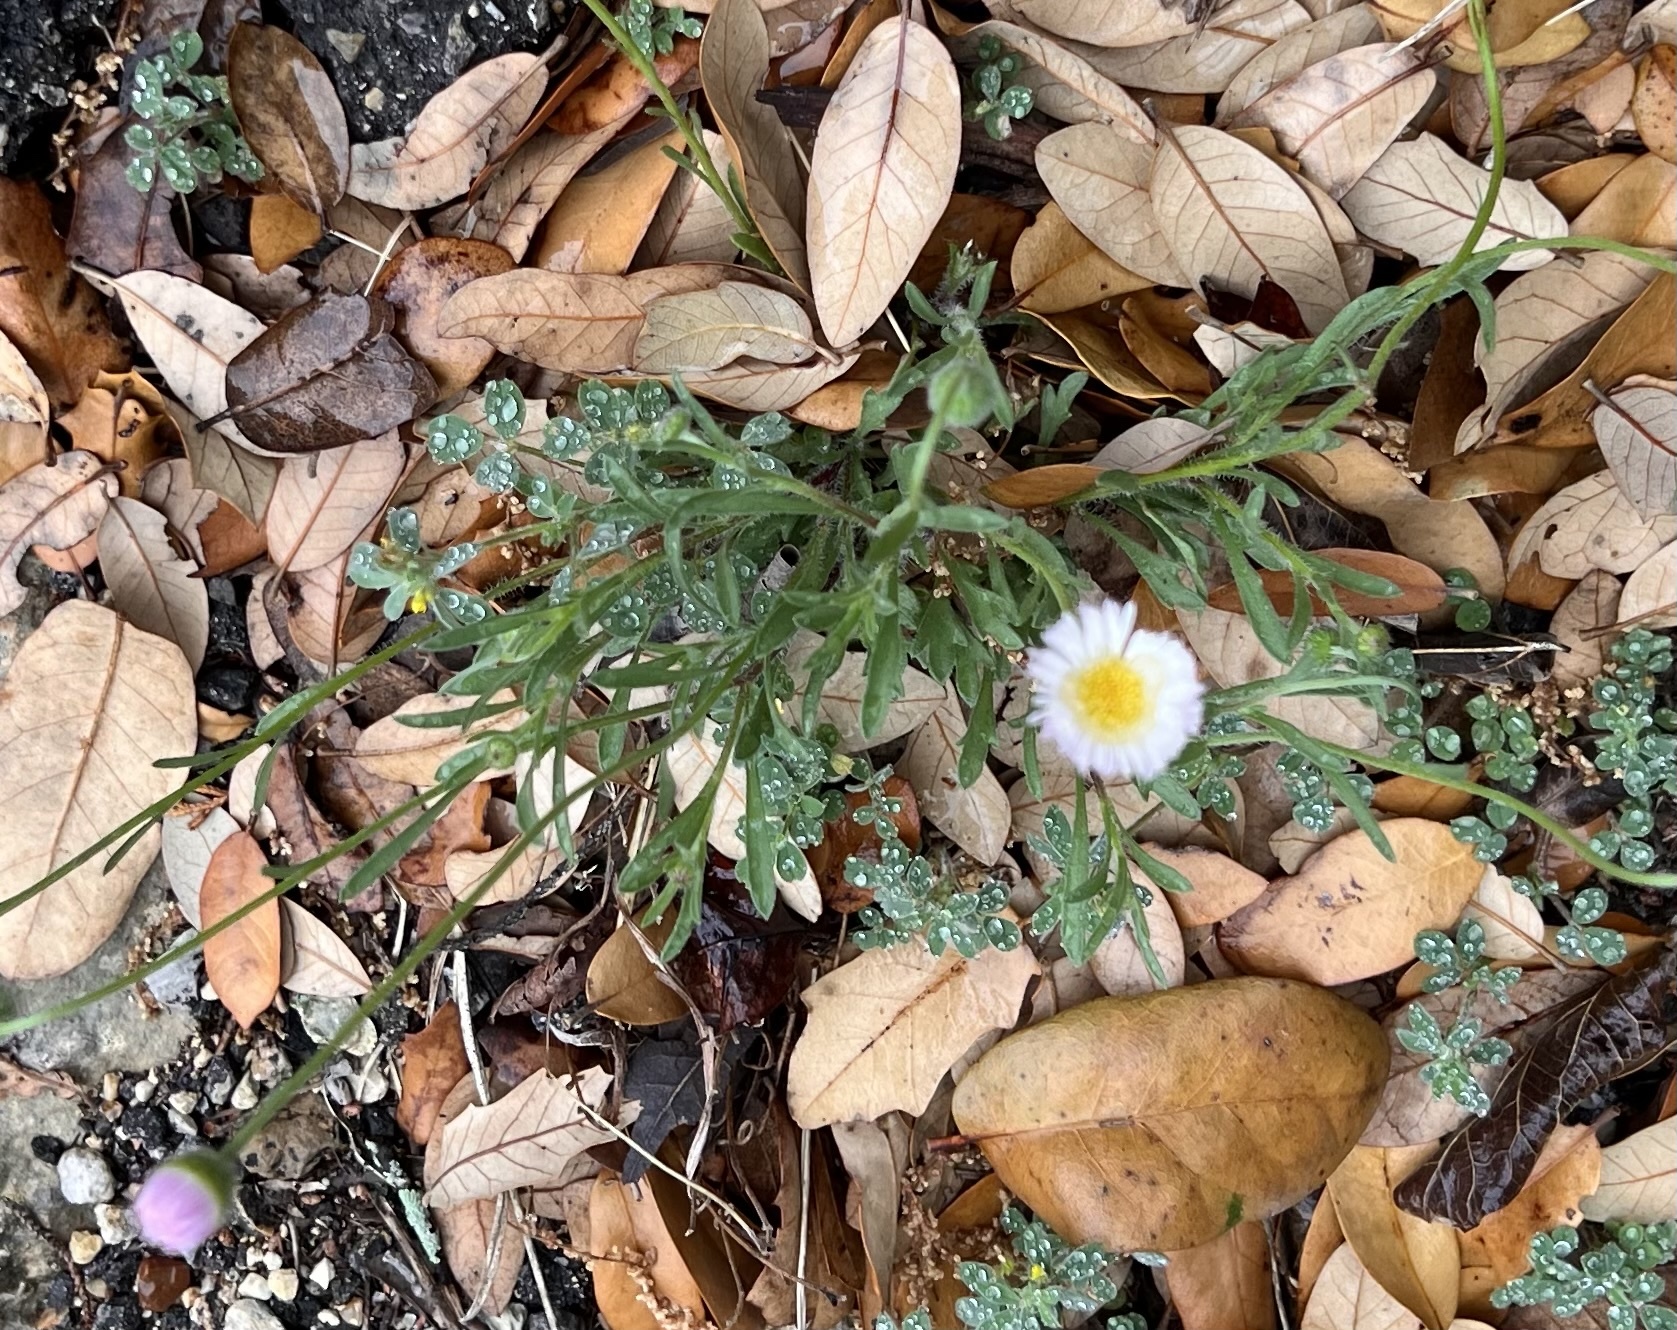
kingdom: Plantae
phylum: Tracheophyta
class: Magnoliopsida
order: Asterales
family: Asteraceae
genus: Erigeron
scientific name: Erigeron modestus
